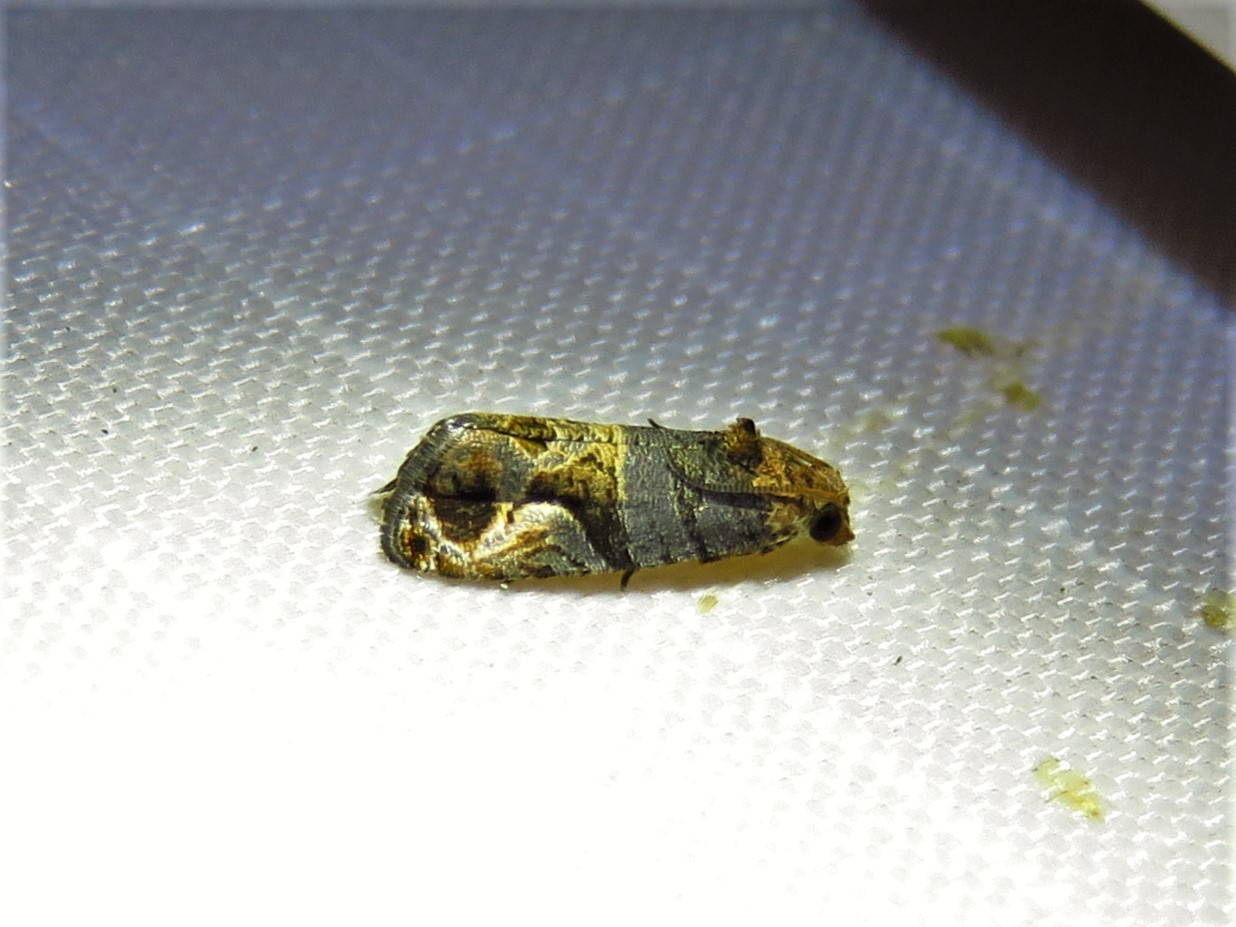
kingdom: Animalia
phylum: Arthropoda
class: Insecta
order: Lepidoptera
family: Tortricidae
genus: Paralobesia
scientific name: Paralobesia viteana
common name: Grape berry moth
